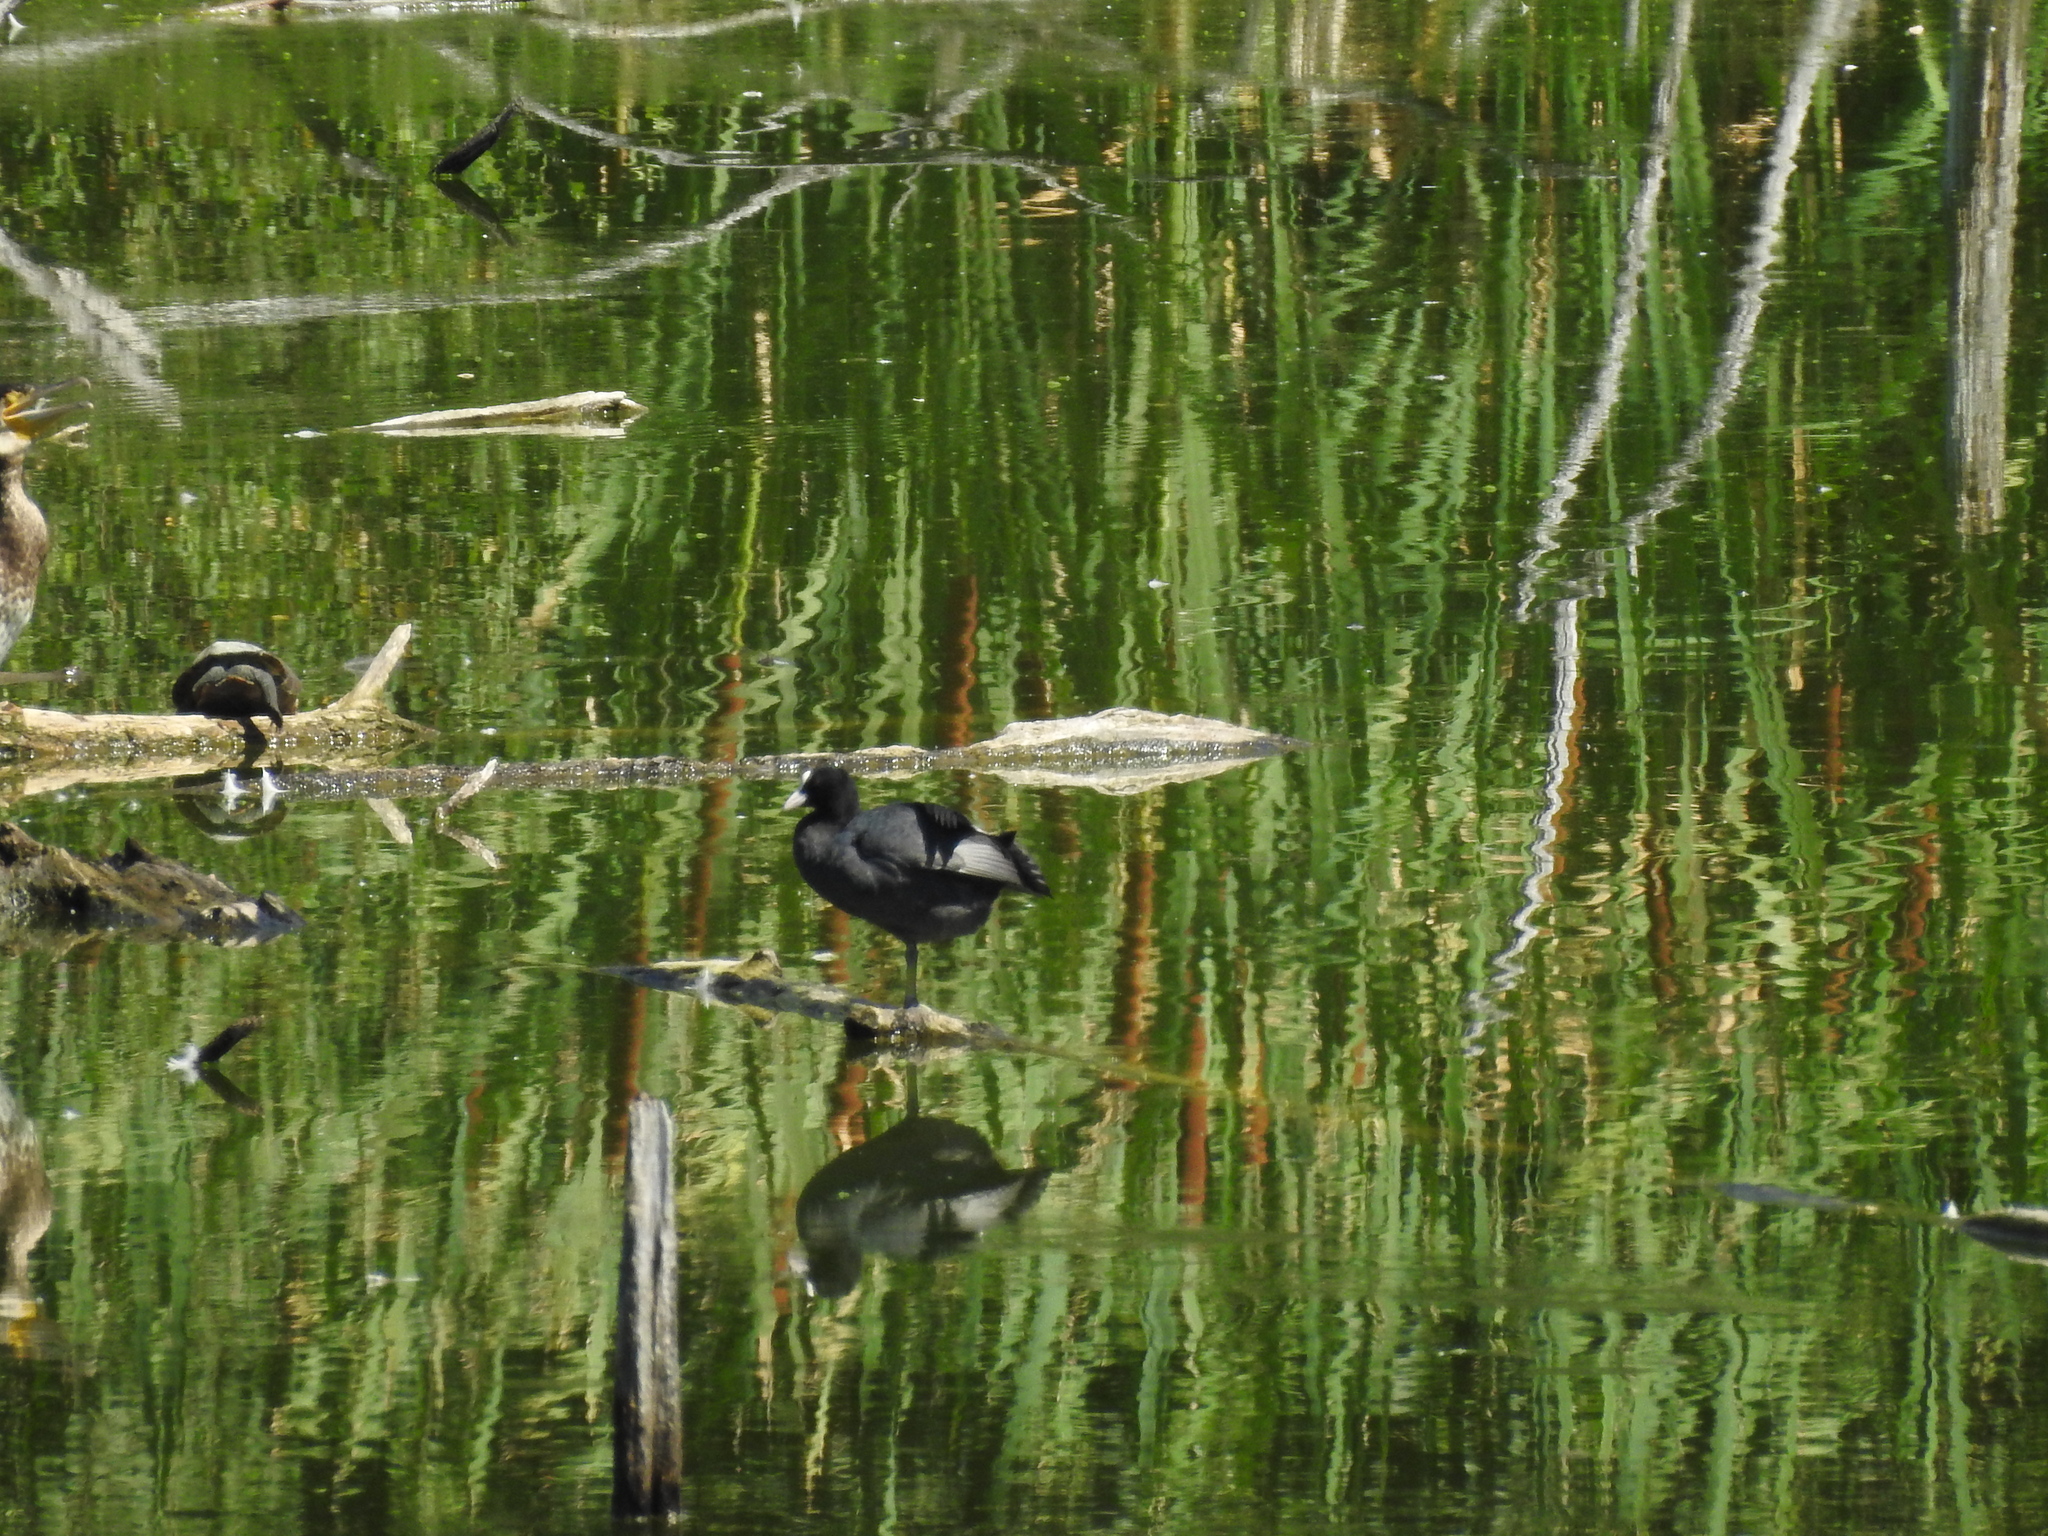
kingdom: Animalia
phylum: Chordata
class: Aves
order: Gruiformes
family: Rallidae
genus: Fulica
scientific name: Fulica atra
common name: Eurasian coot
